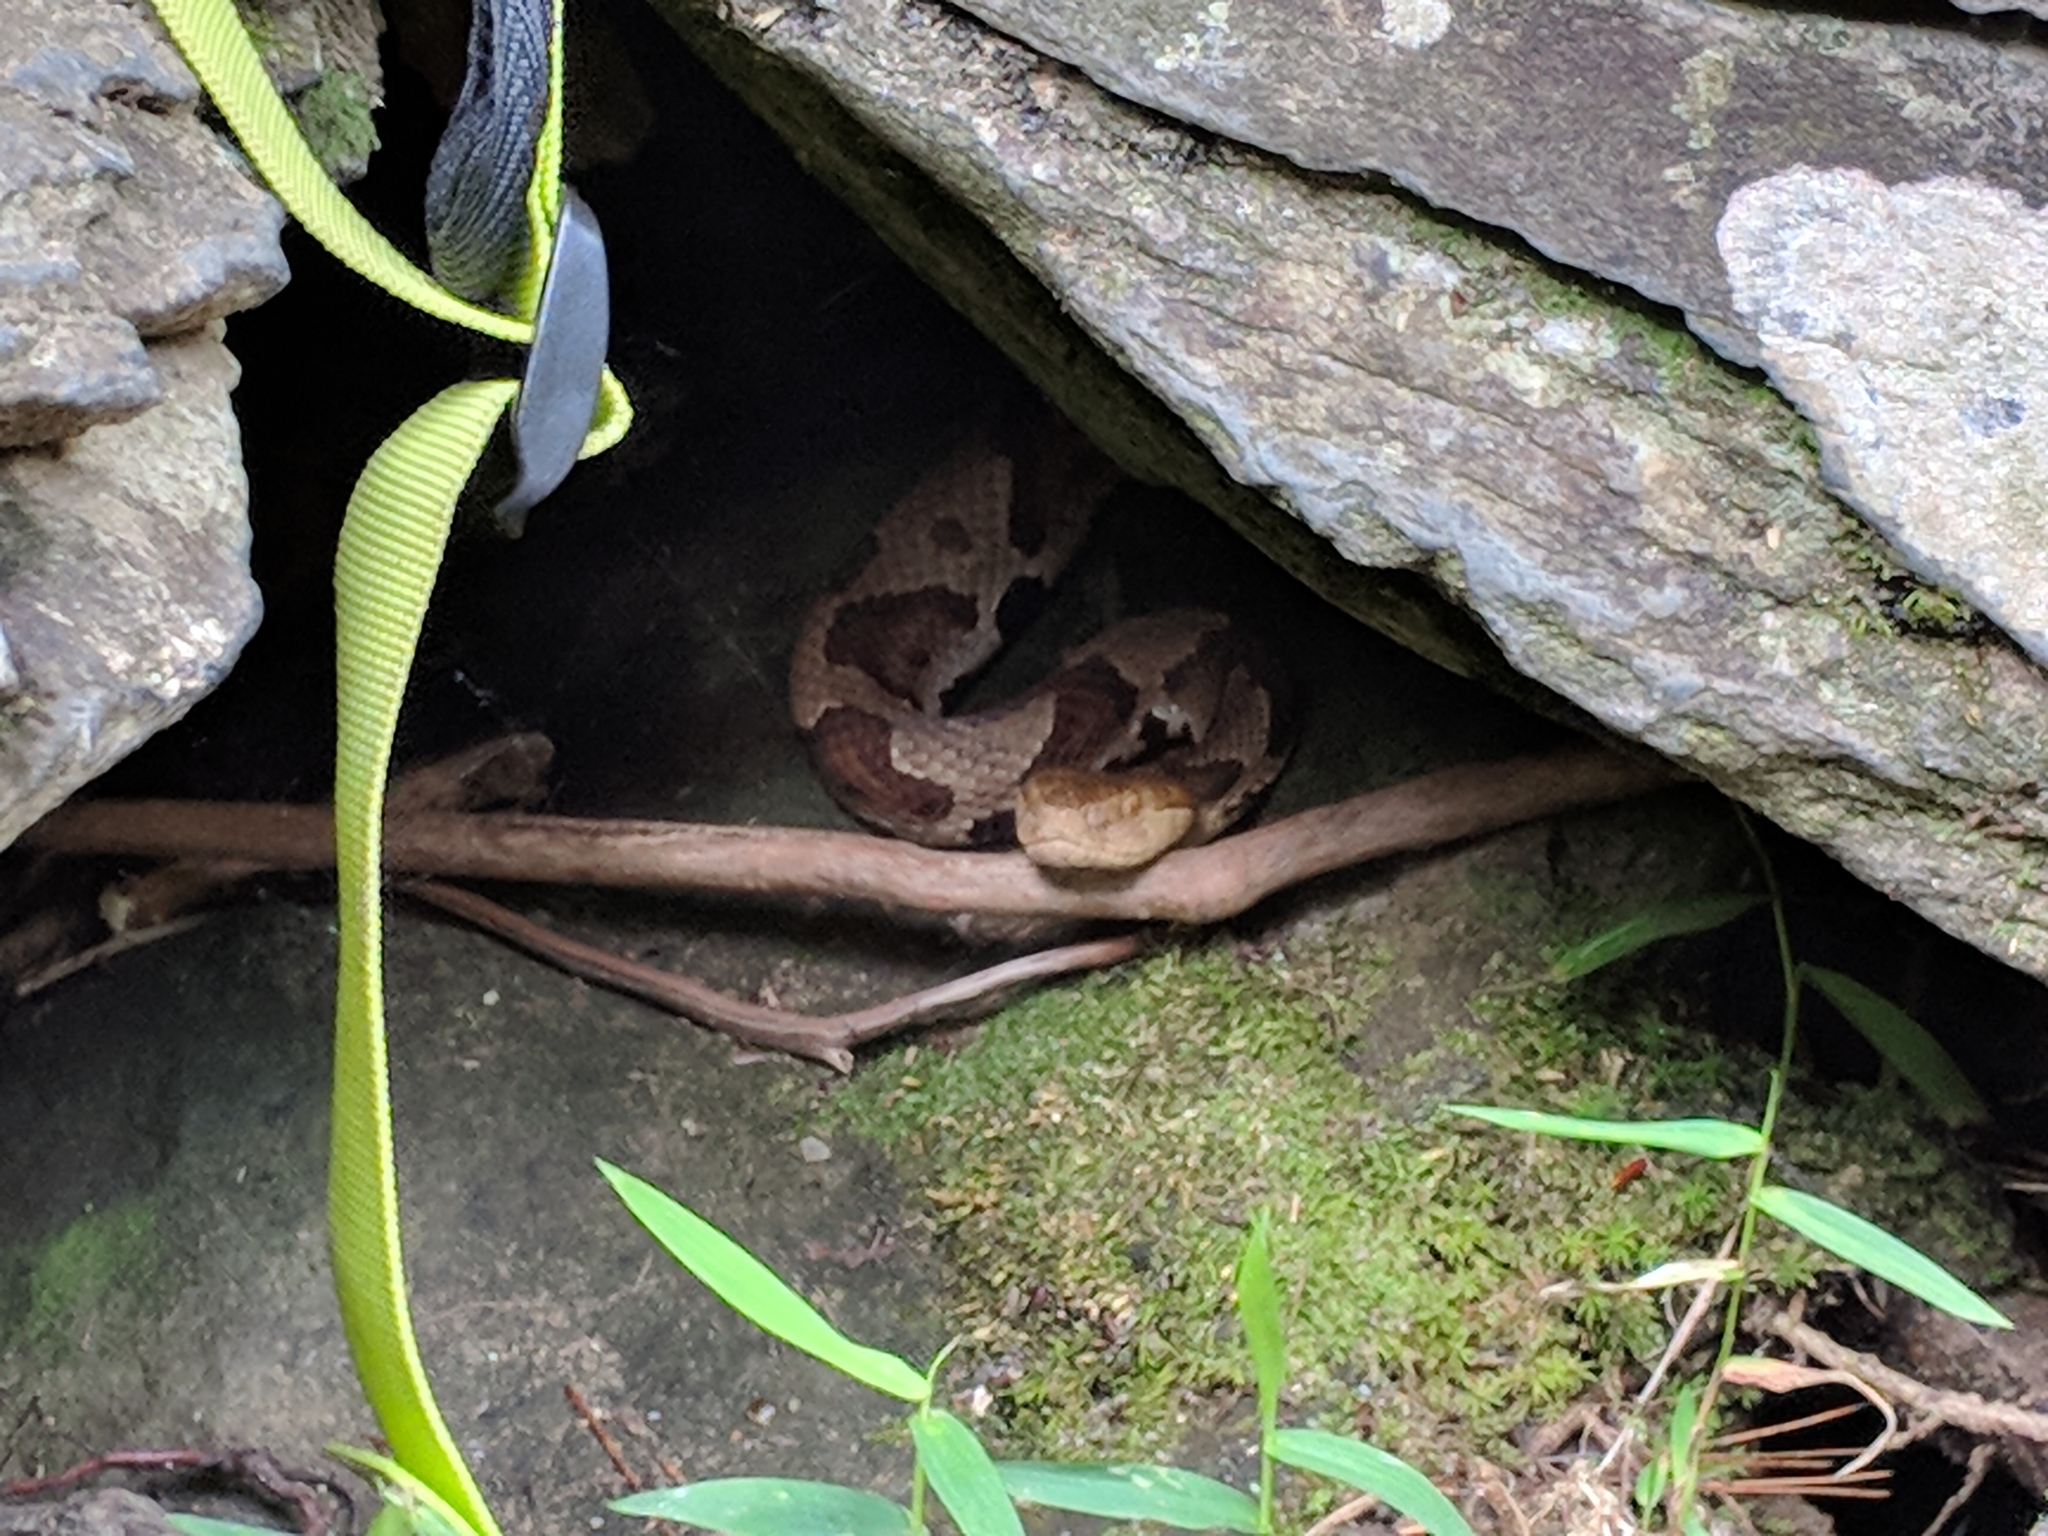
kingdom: Animalia
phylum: Chordata
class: Squamata
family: Viperidae
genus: Agkistrodon
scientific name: Agkistrodon contortrix
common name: Northern copperhead
